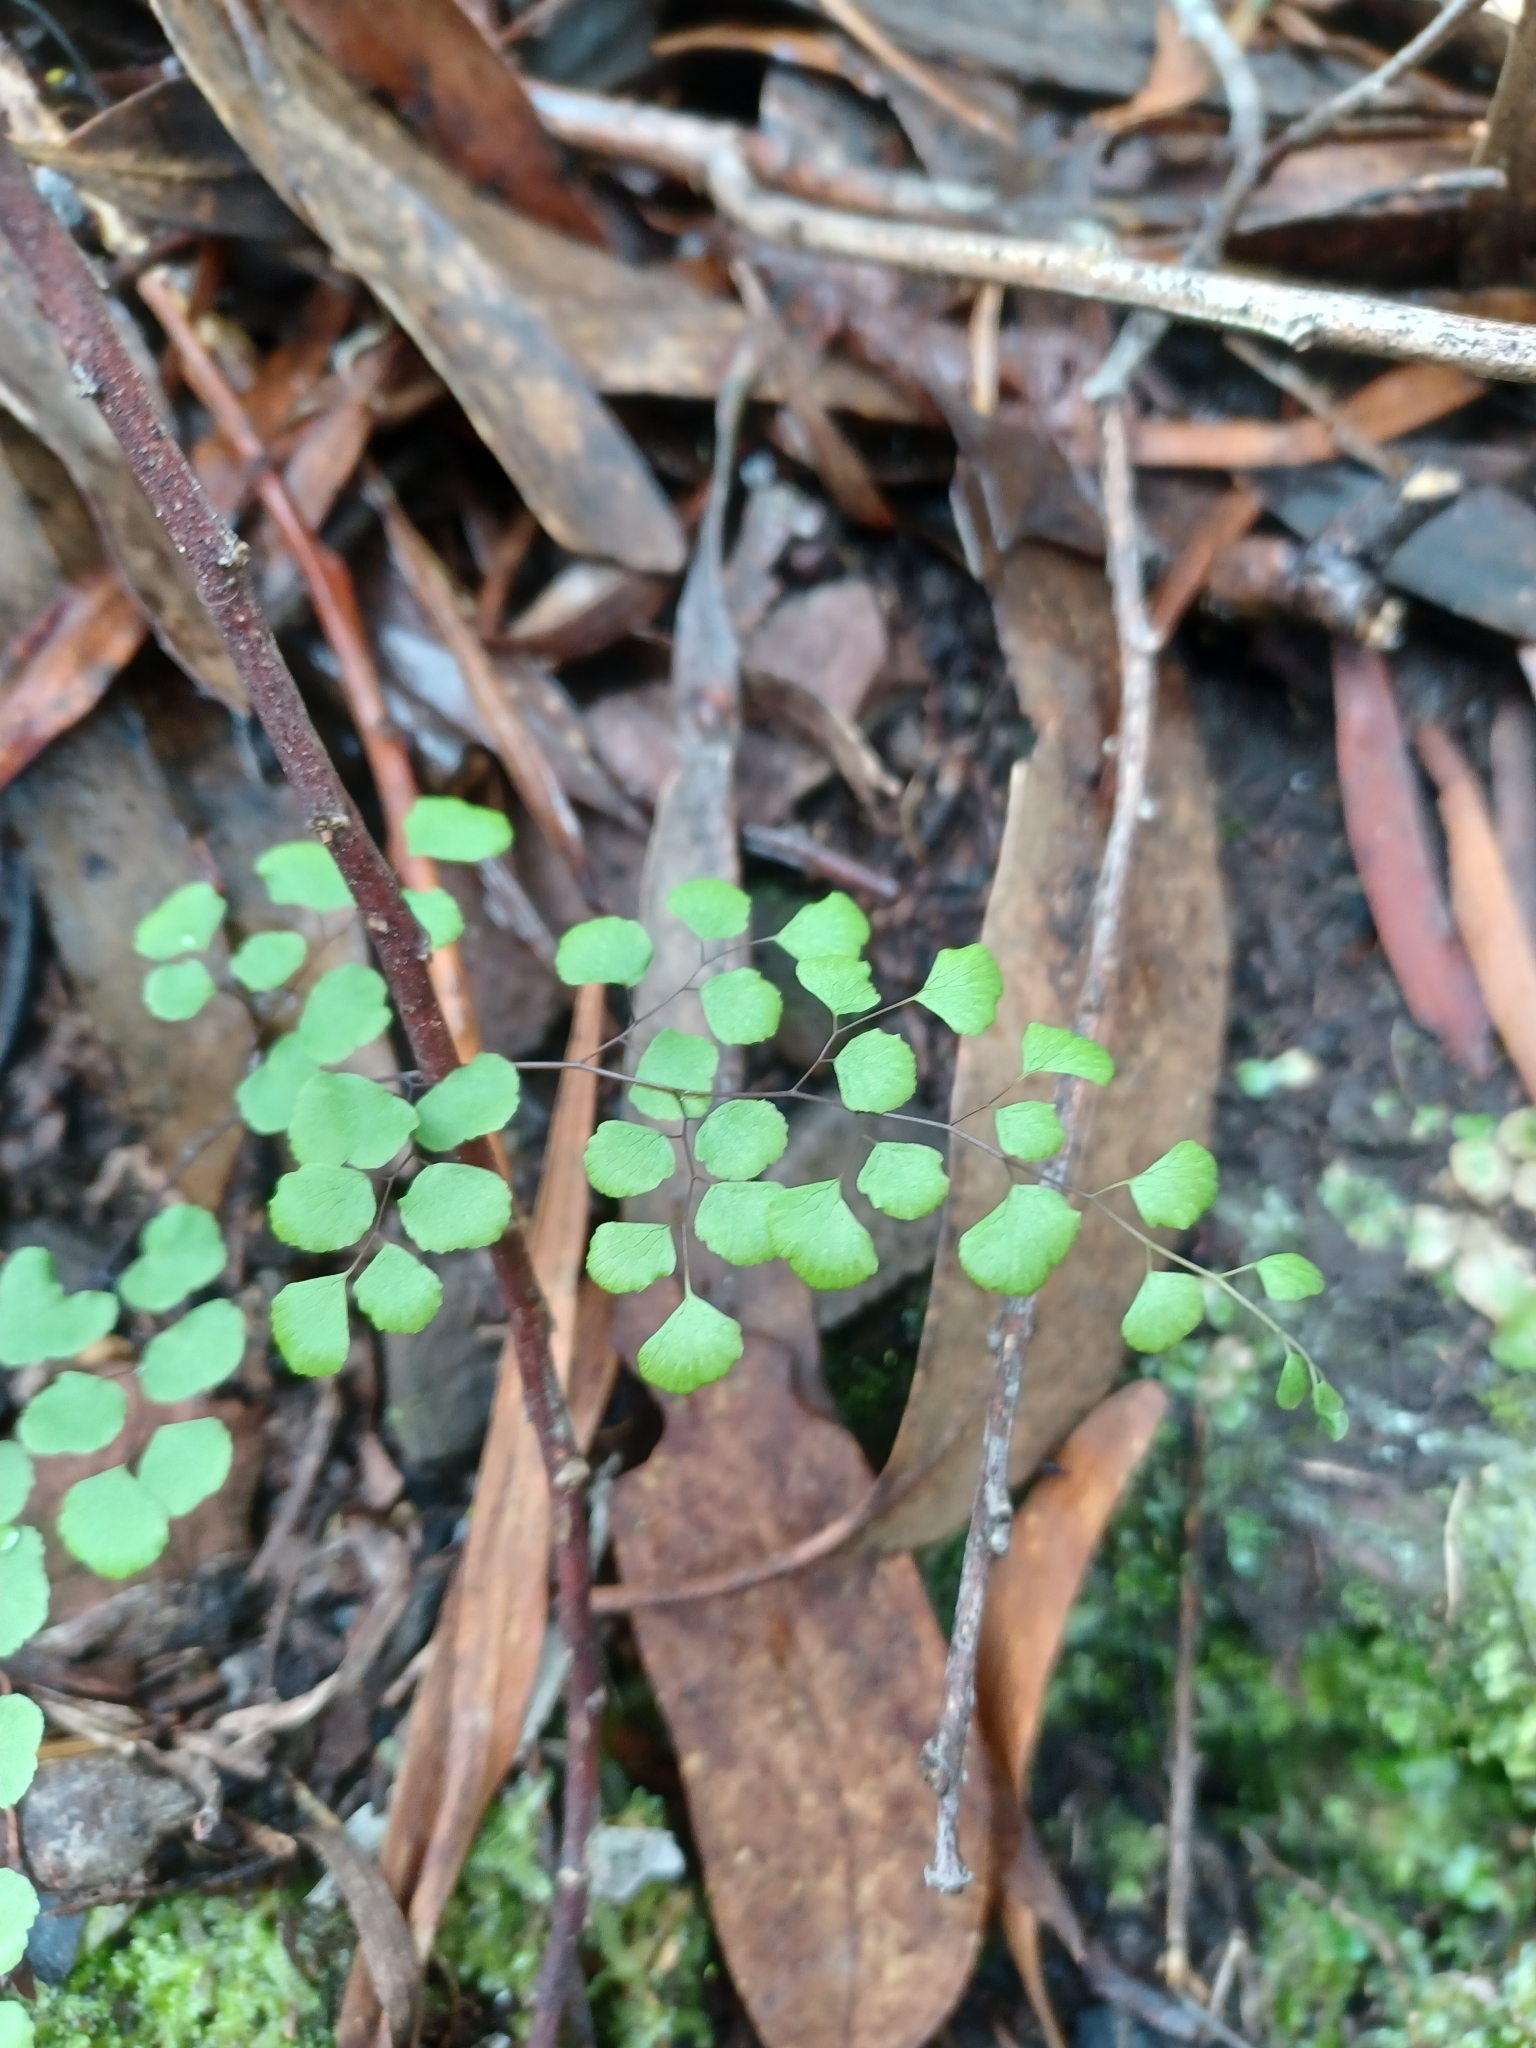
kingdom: Plantae
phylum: Tracheophyta
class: Polypodiopsida
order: Polypodiales
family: Pteridaceae
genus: Adiantum
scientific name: Adiantum aethiopicum
